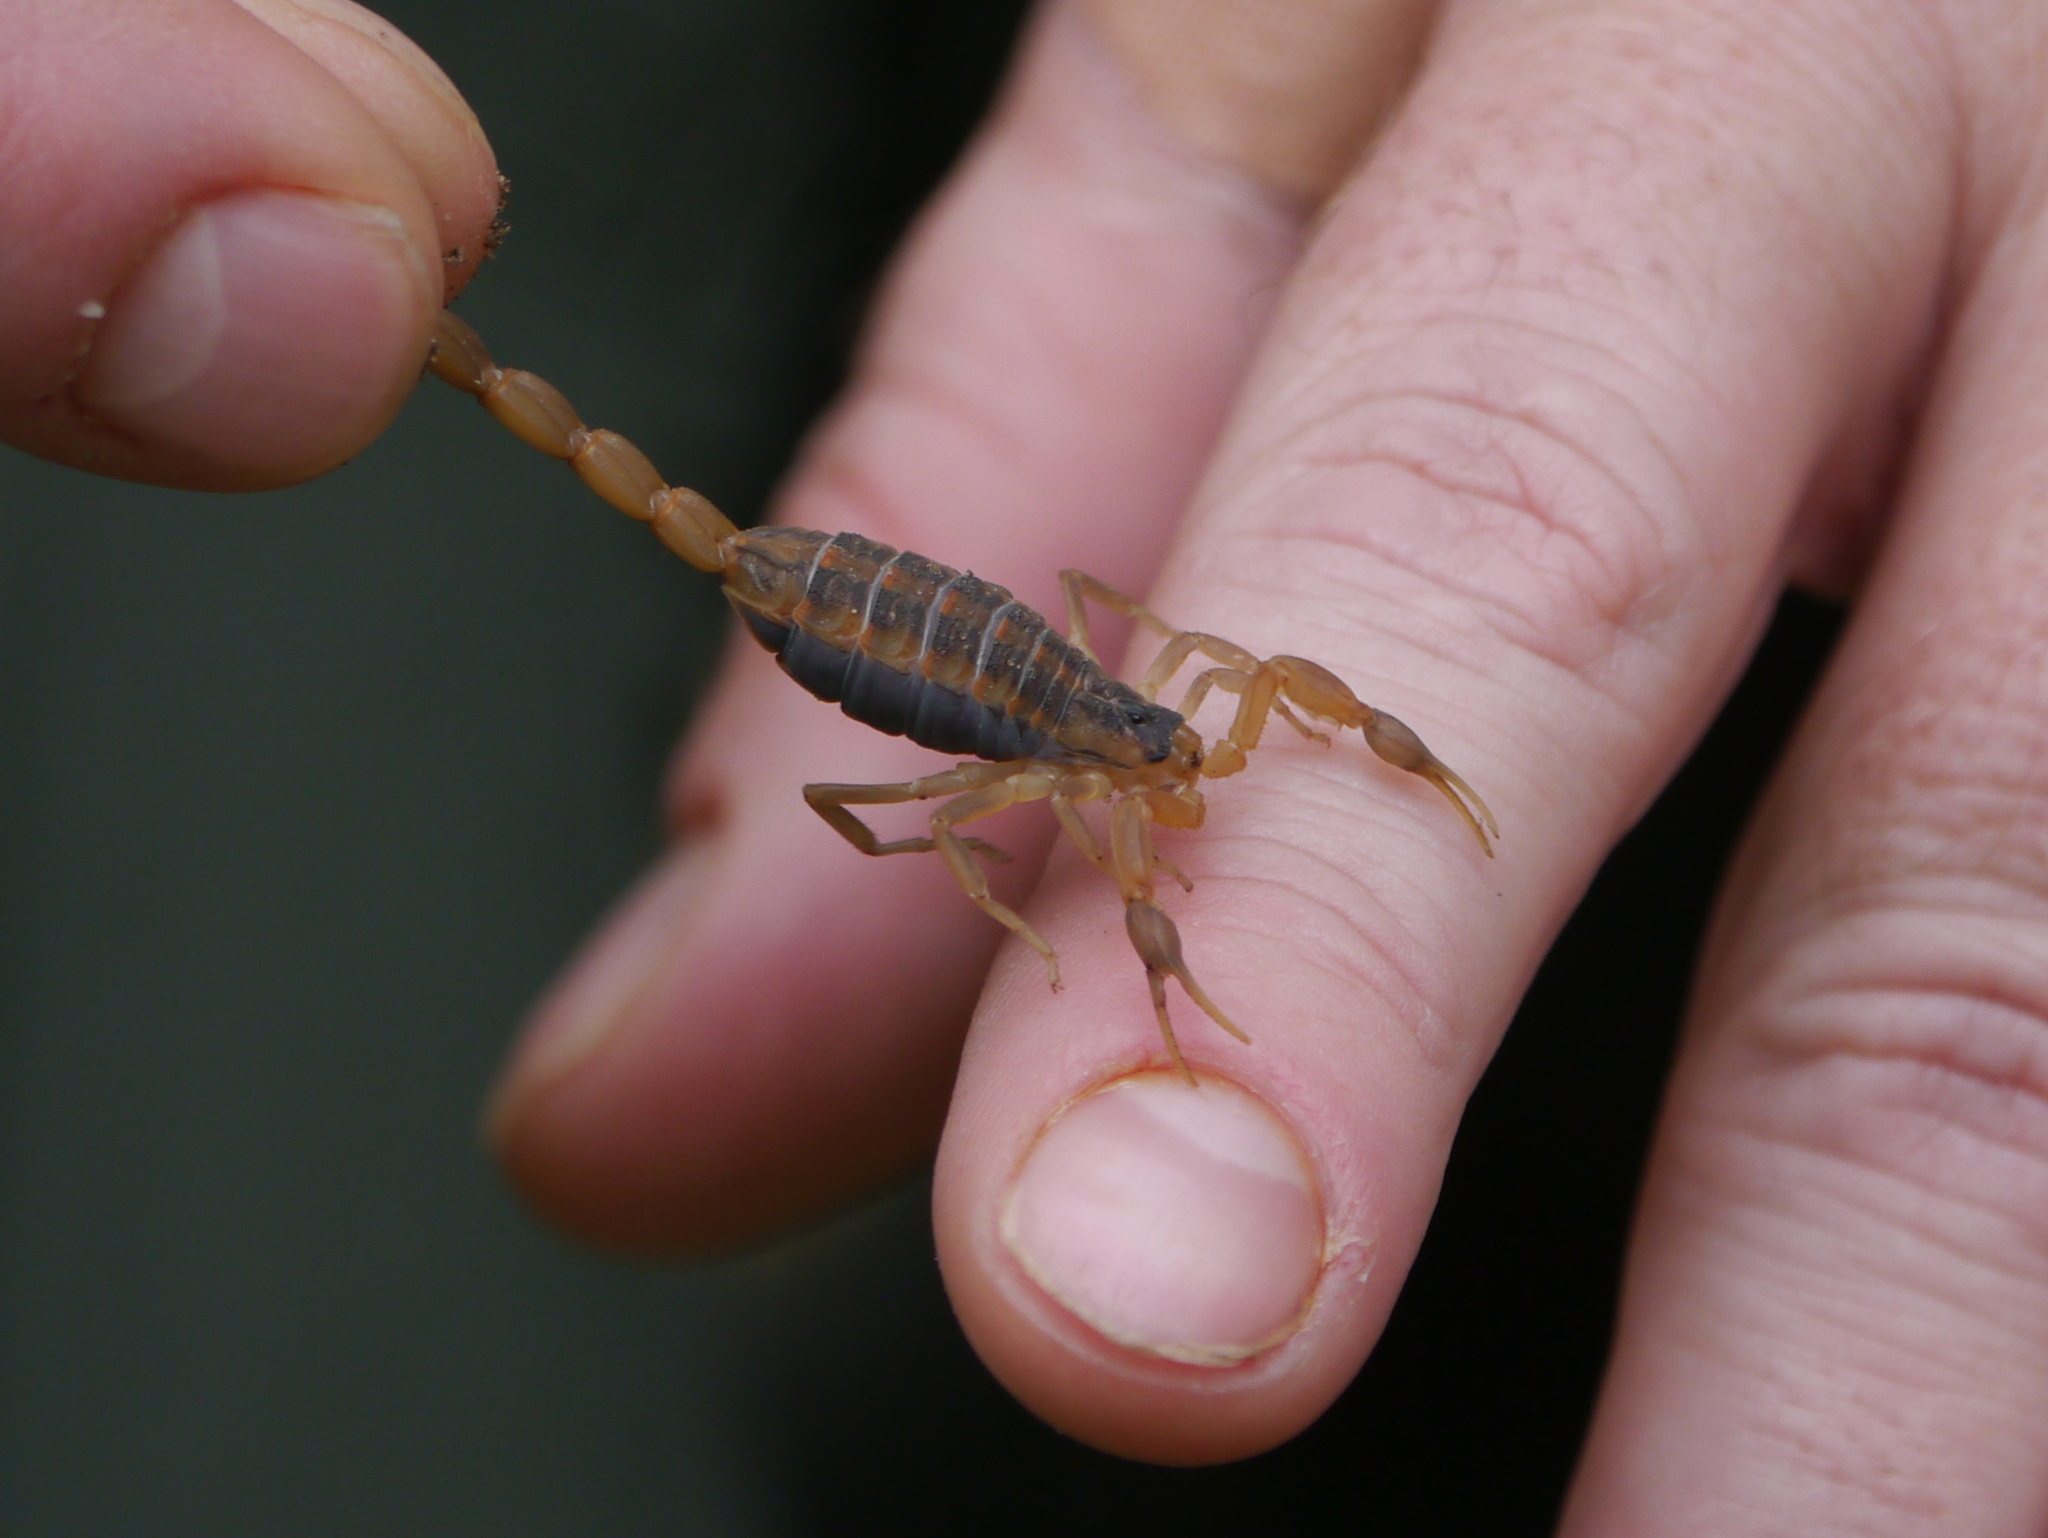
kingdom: Animalia
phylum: Arthropoda
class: Arachnida
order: Scorpiones
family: Buthidae
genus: Centruroides
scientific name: Centruroides vittatus
